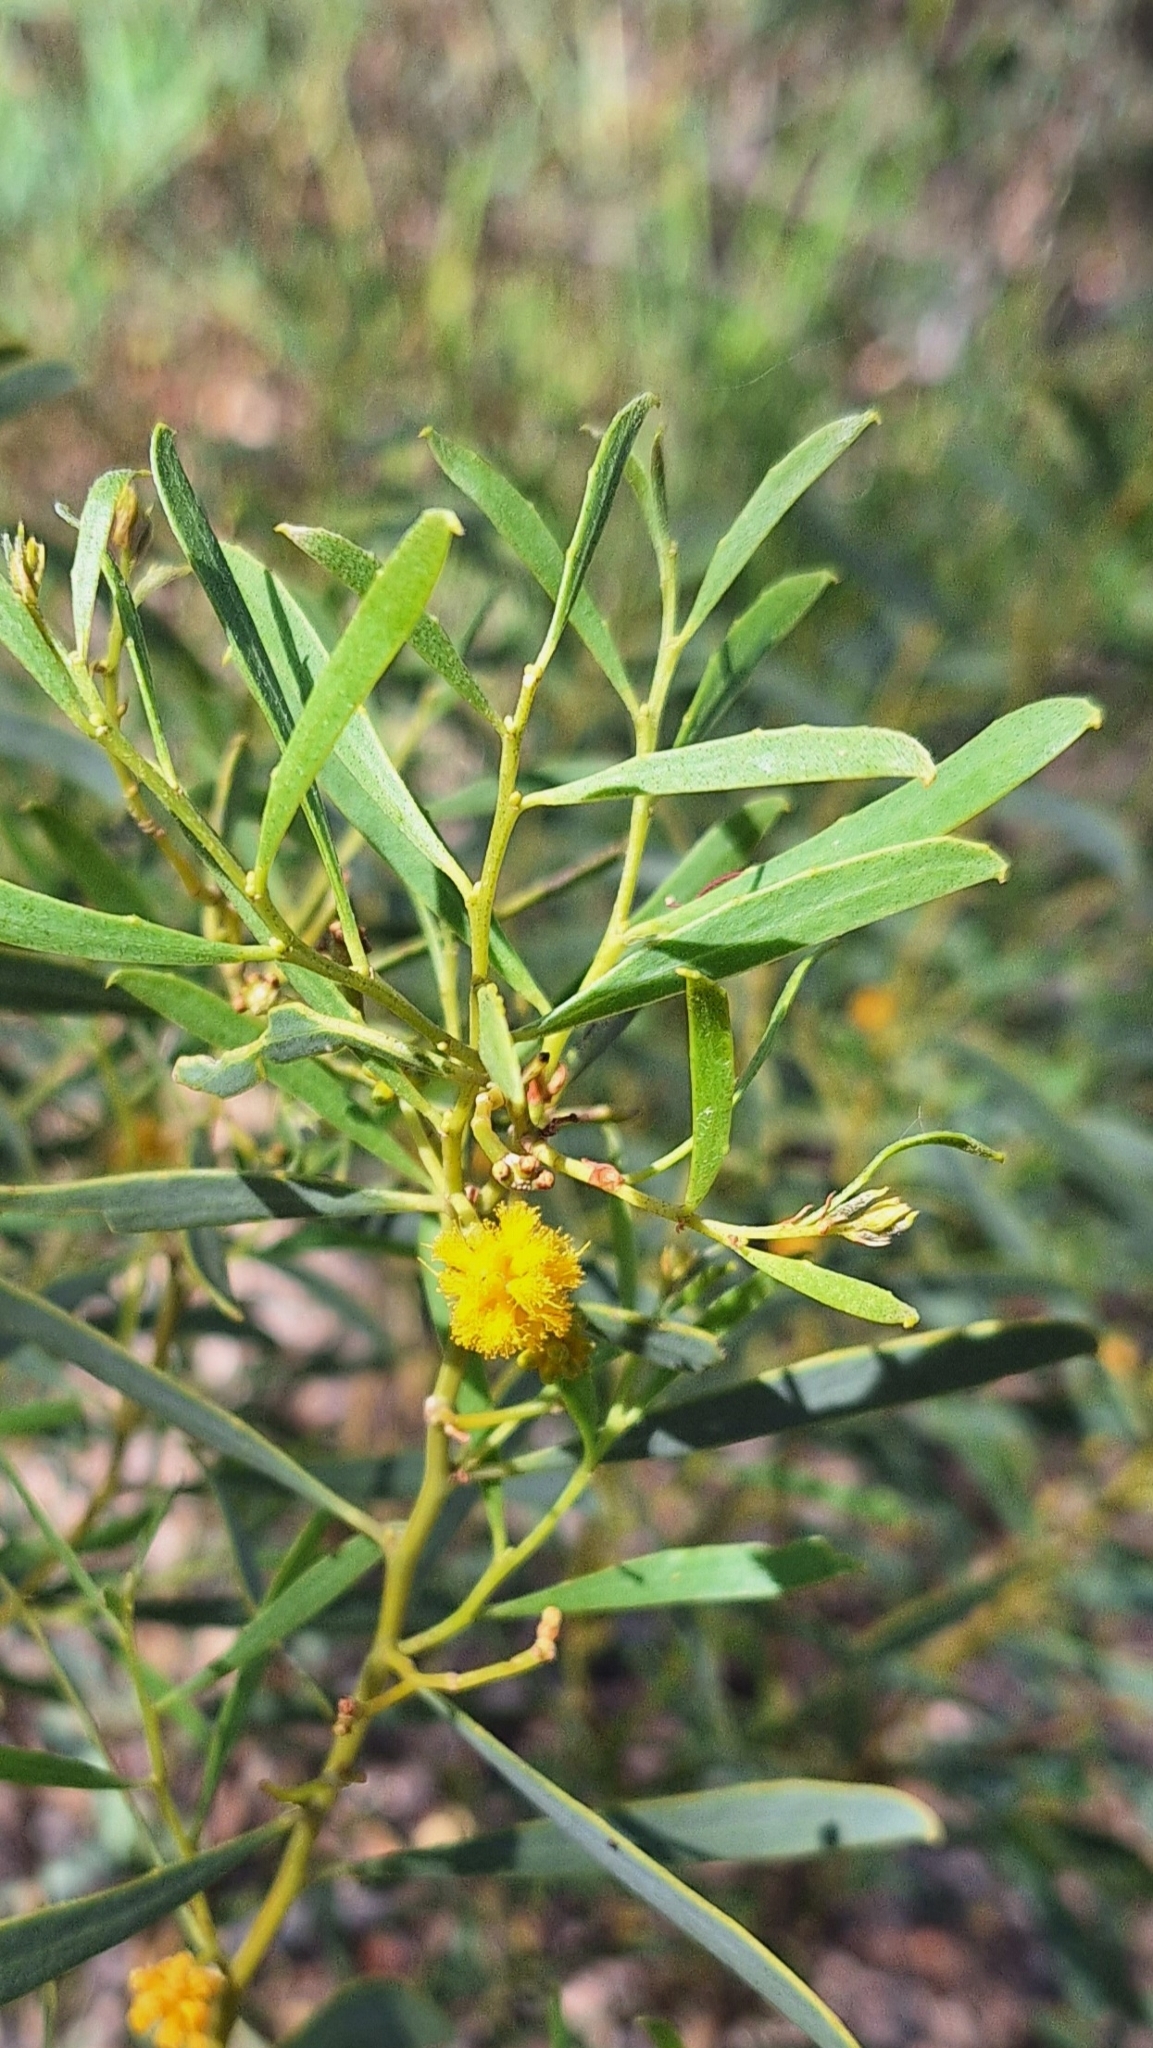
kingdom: Plantae
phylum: Tracheophyta
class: Magnoliopsida
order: Fabales
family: Fabaceae
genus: Acacia
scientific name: Acacia ligulata
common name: Dune wattle
